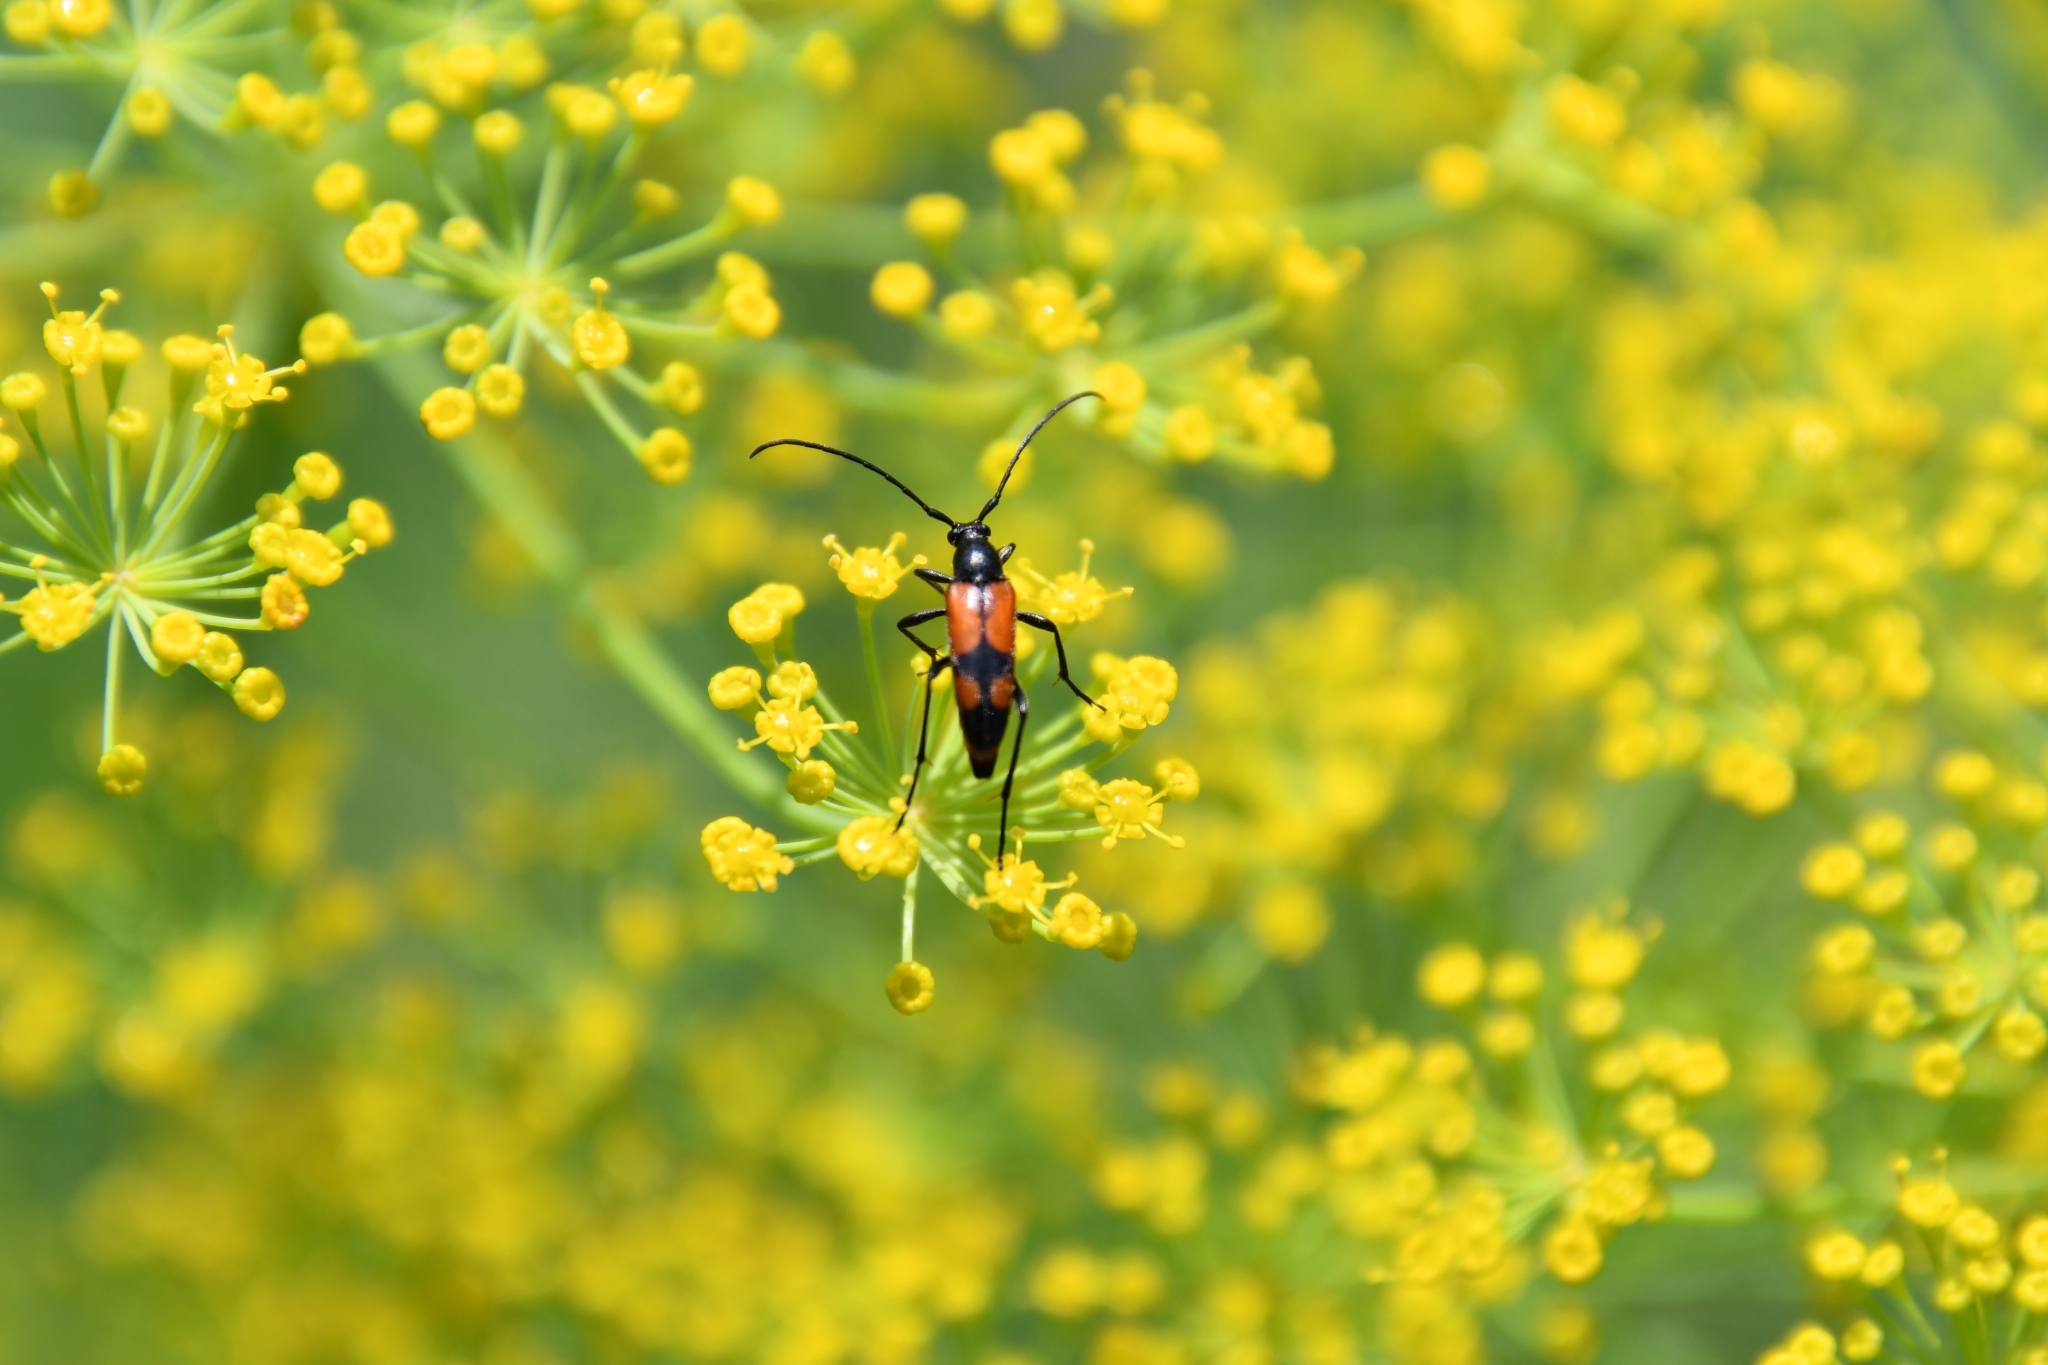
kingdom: Animalia
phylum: Arthropoda
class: Insecta
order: Coleoptera
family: Cerambycidae
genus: Stenurella
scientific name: Stenurella bifasciata
